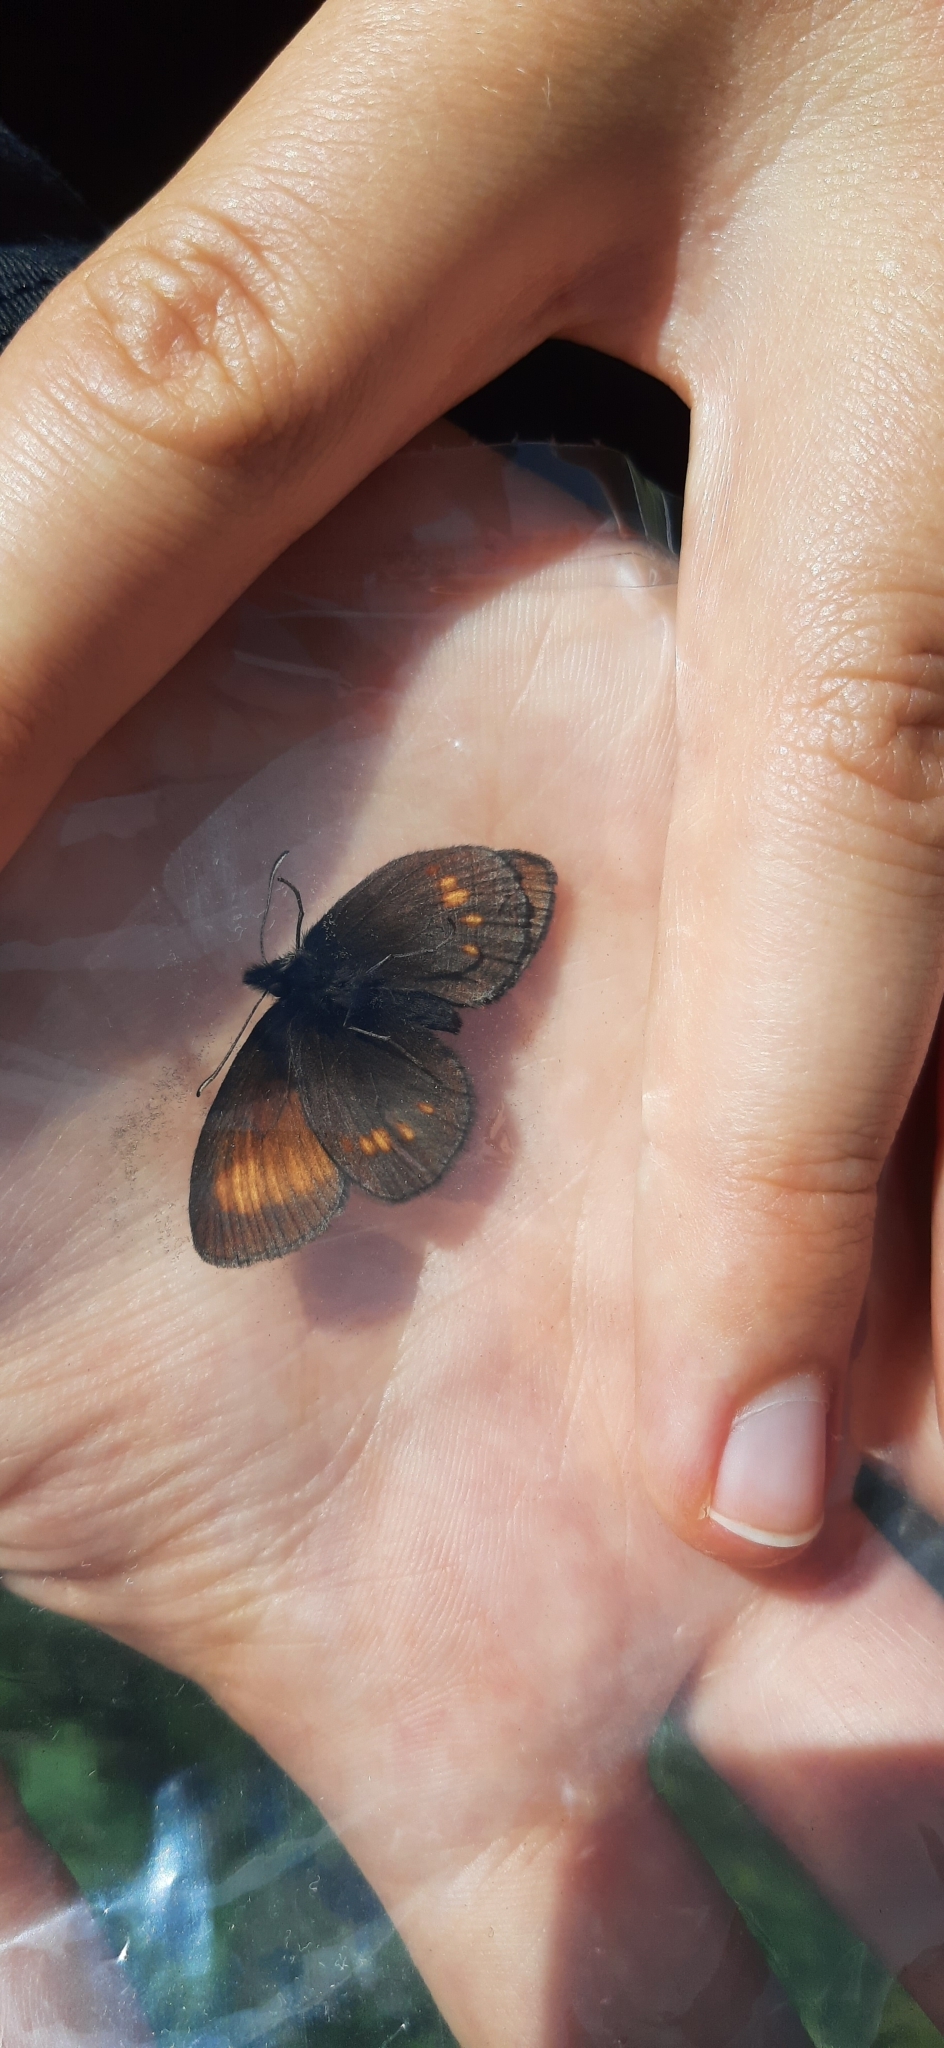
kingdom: Animalia
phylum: Arthropoda
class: Insecta
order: Lepidoptera
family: Nymphalidae
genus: Erebia
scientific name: Erebia eriphyle
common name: Eriphyle ringlet
